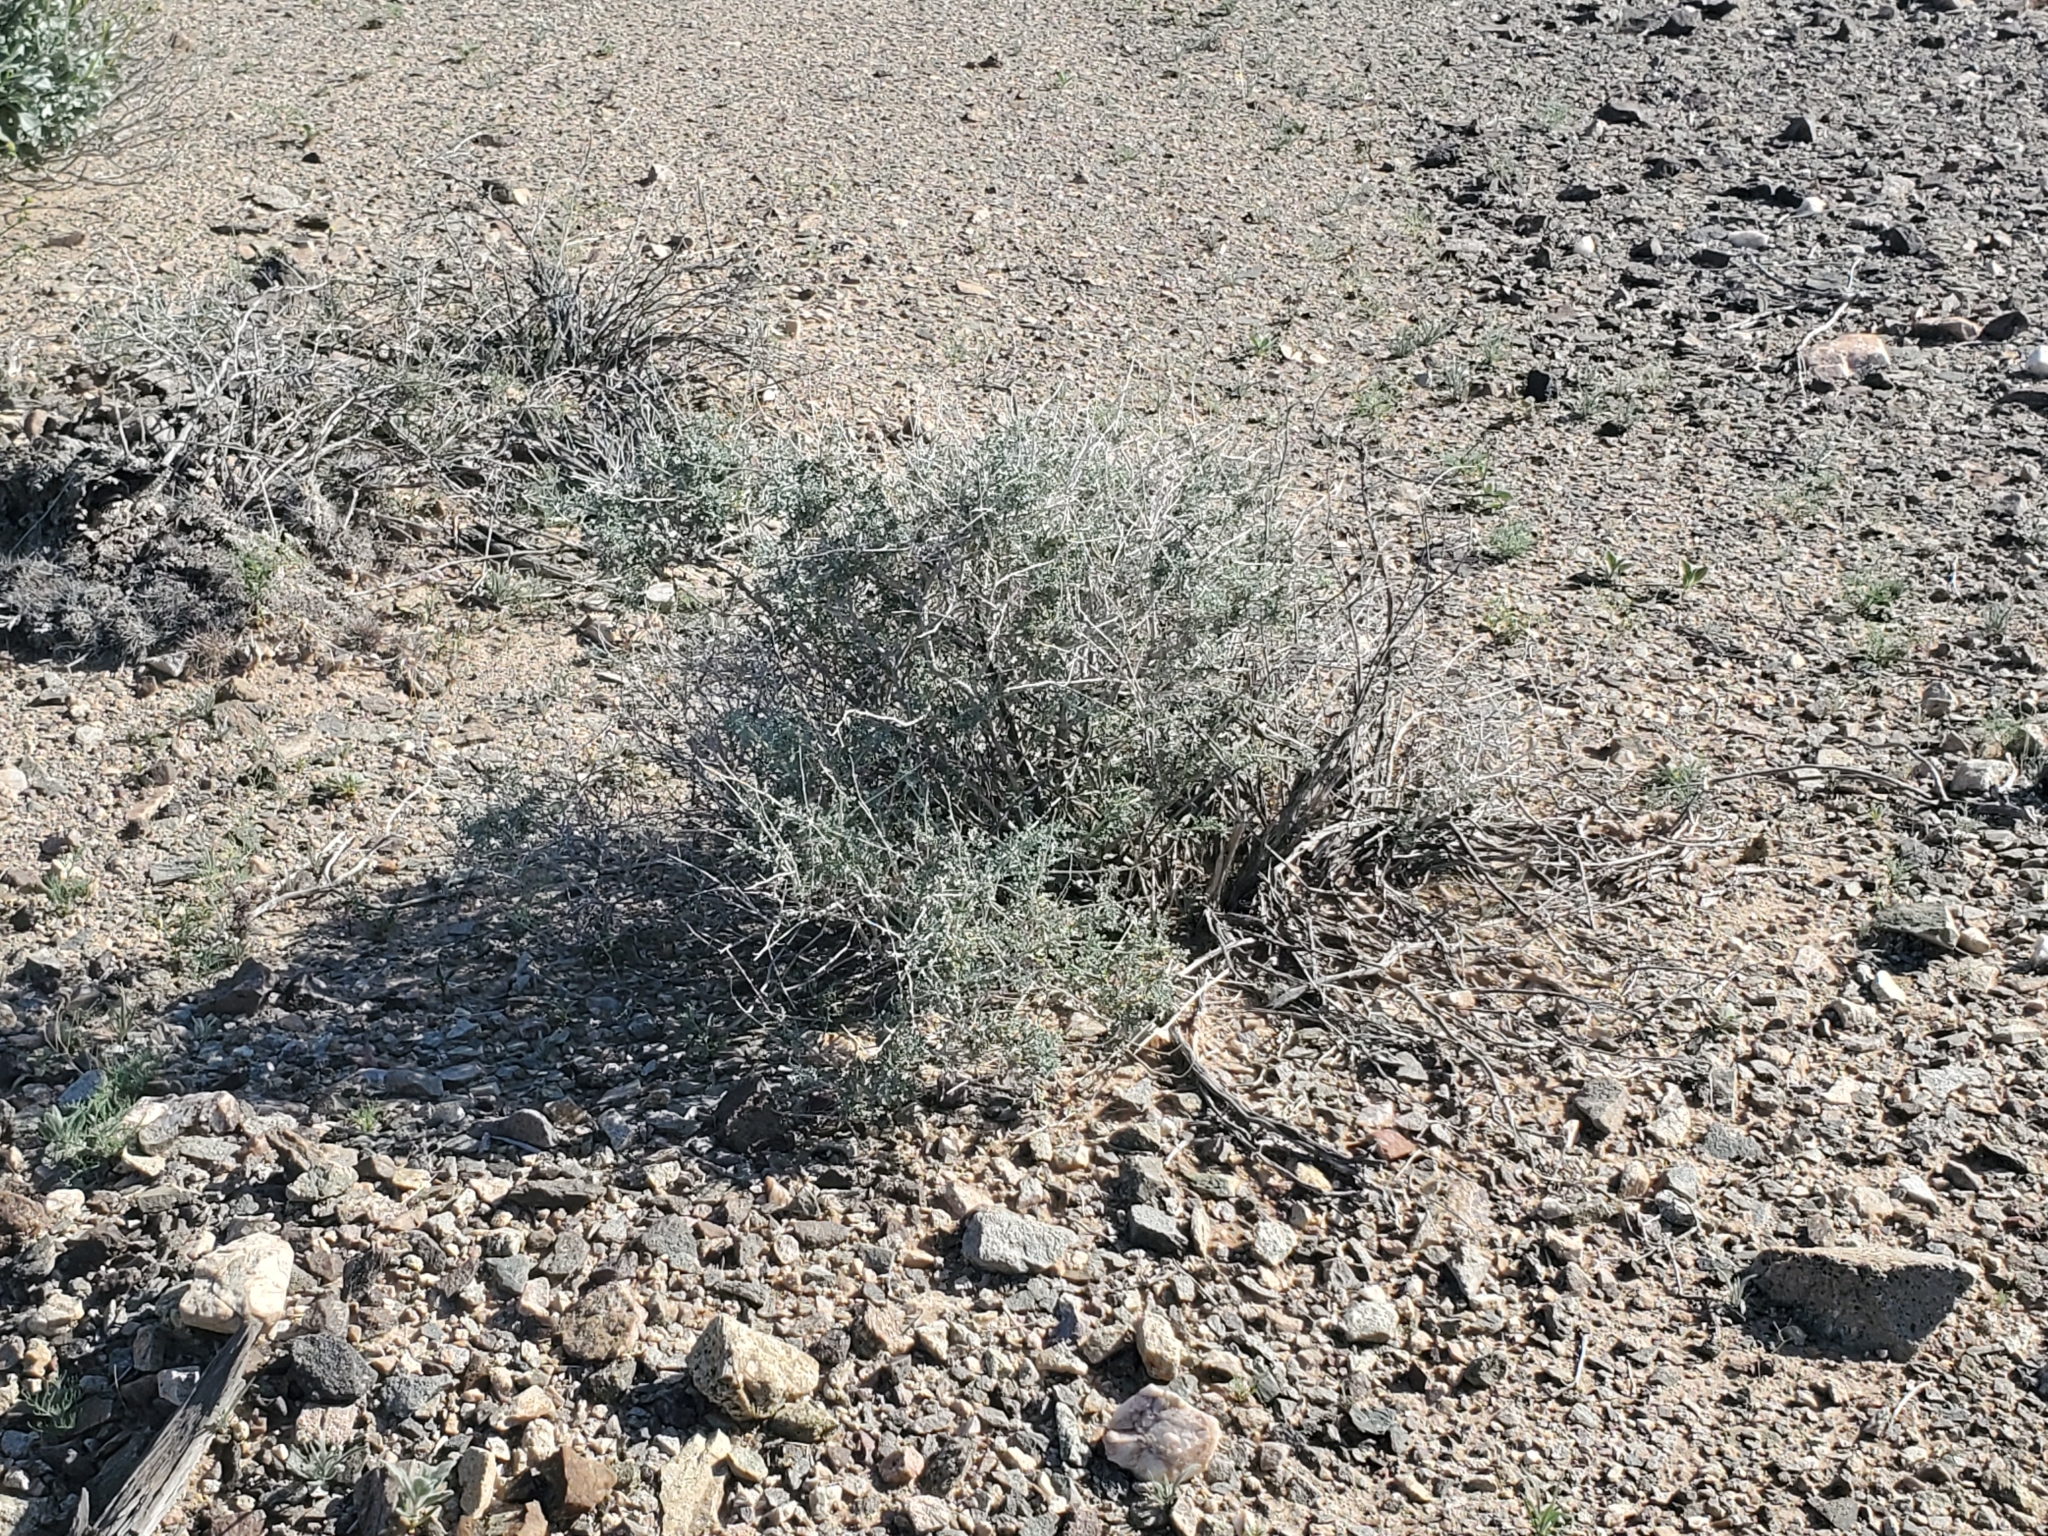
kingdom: Plantae
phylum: Tracheophyta
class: Magnoliopsida
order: Asterales
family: Asteraceae
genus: Ambrosia
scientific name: Ambrosia dumosa
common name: Bur-sage
